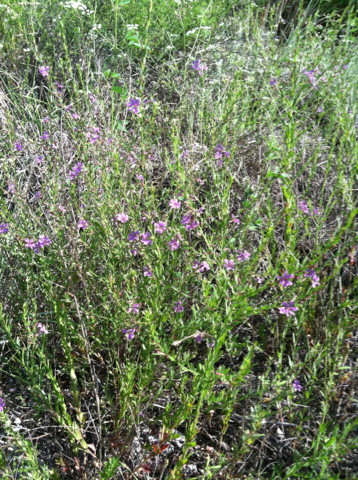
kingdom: Plantae
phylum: Tracheophyta
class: Magnoliopsida
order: Myrtales
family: Lythraceae
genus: Lythrum
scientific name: Lythrum alatum
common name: Winged loosestrife
